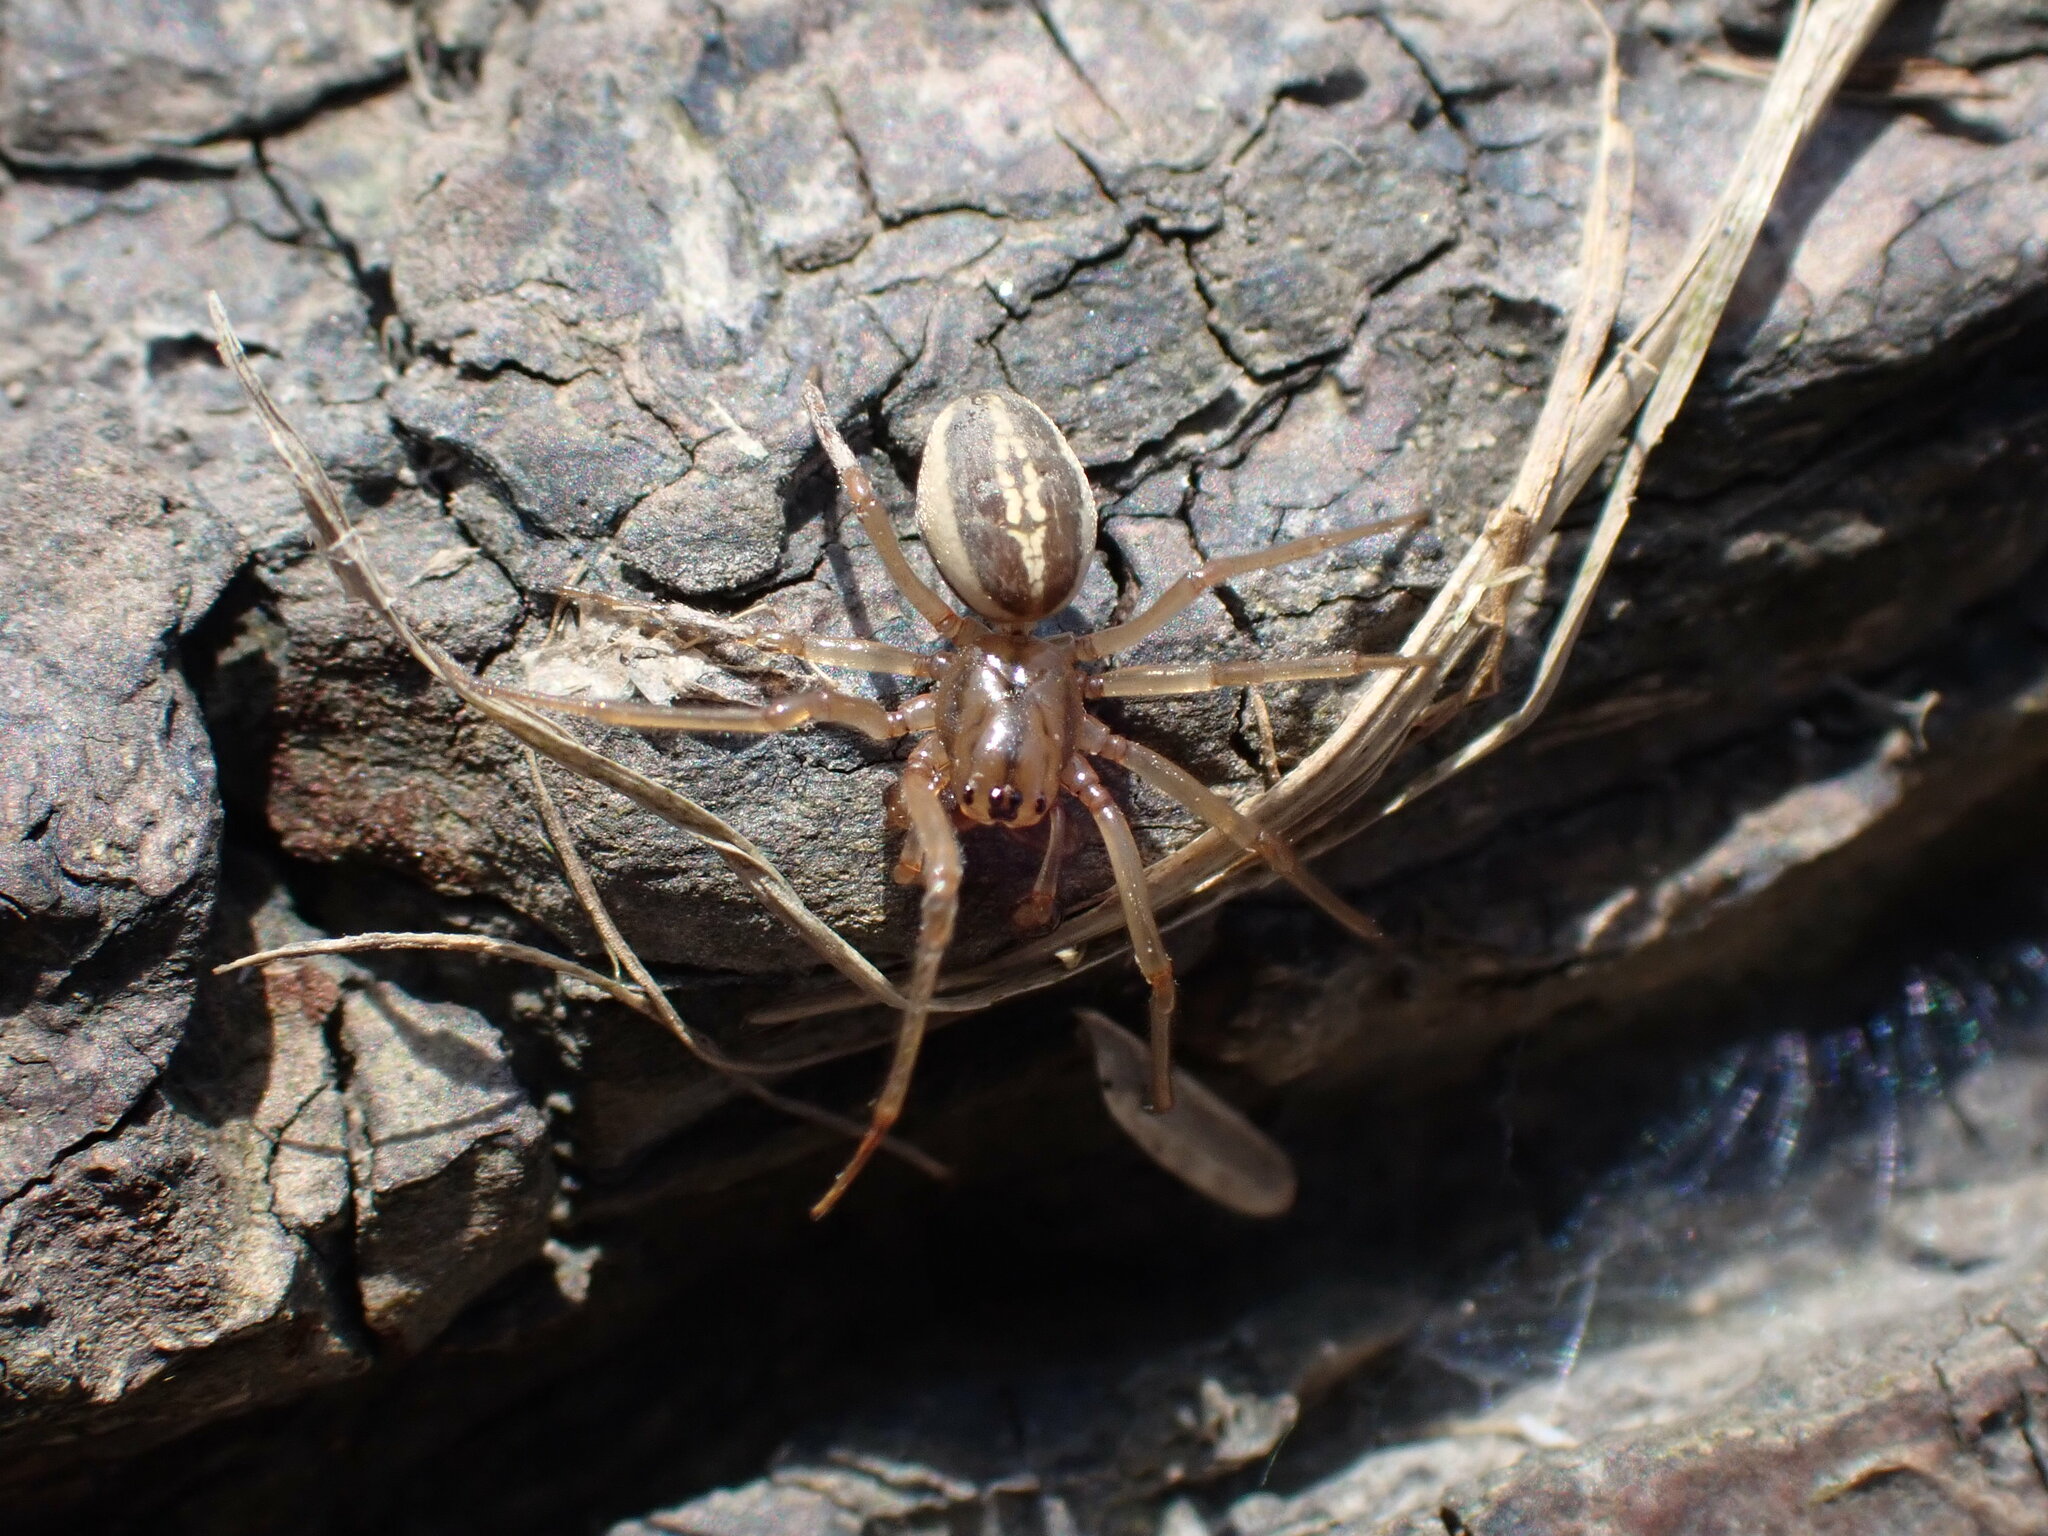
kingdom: Animalia
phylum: Arthropoda
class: Arachnida
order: Araneae
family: Tetragnathidae
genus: Pachygnatha
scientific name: Pachygnatha clercki
